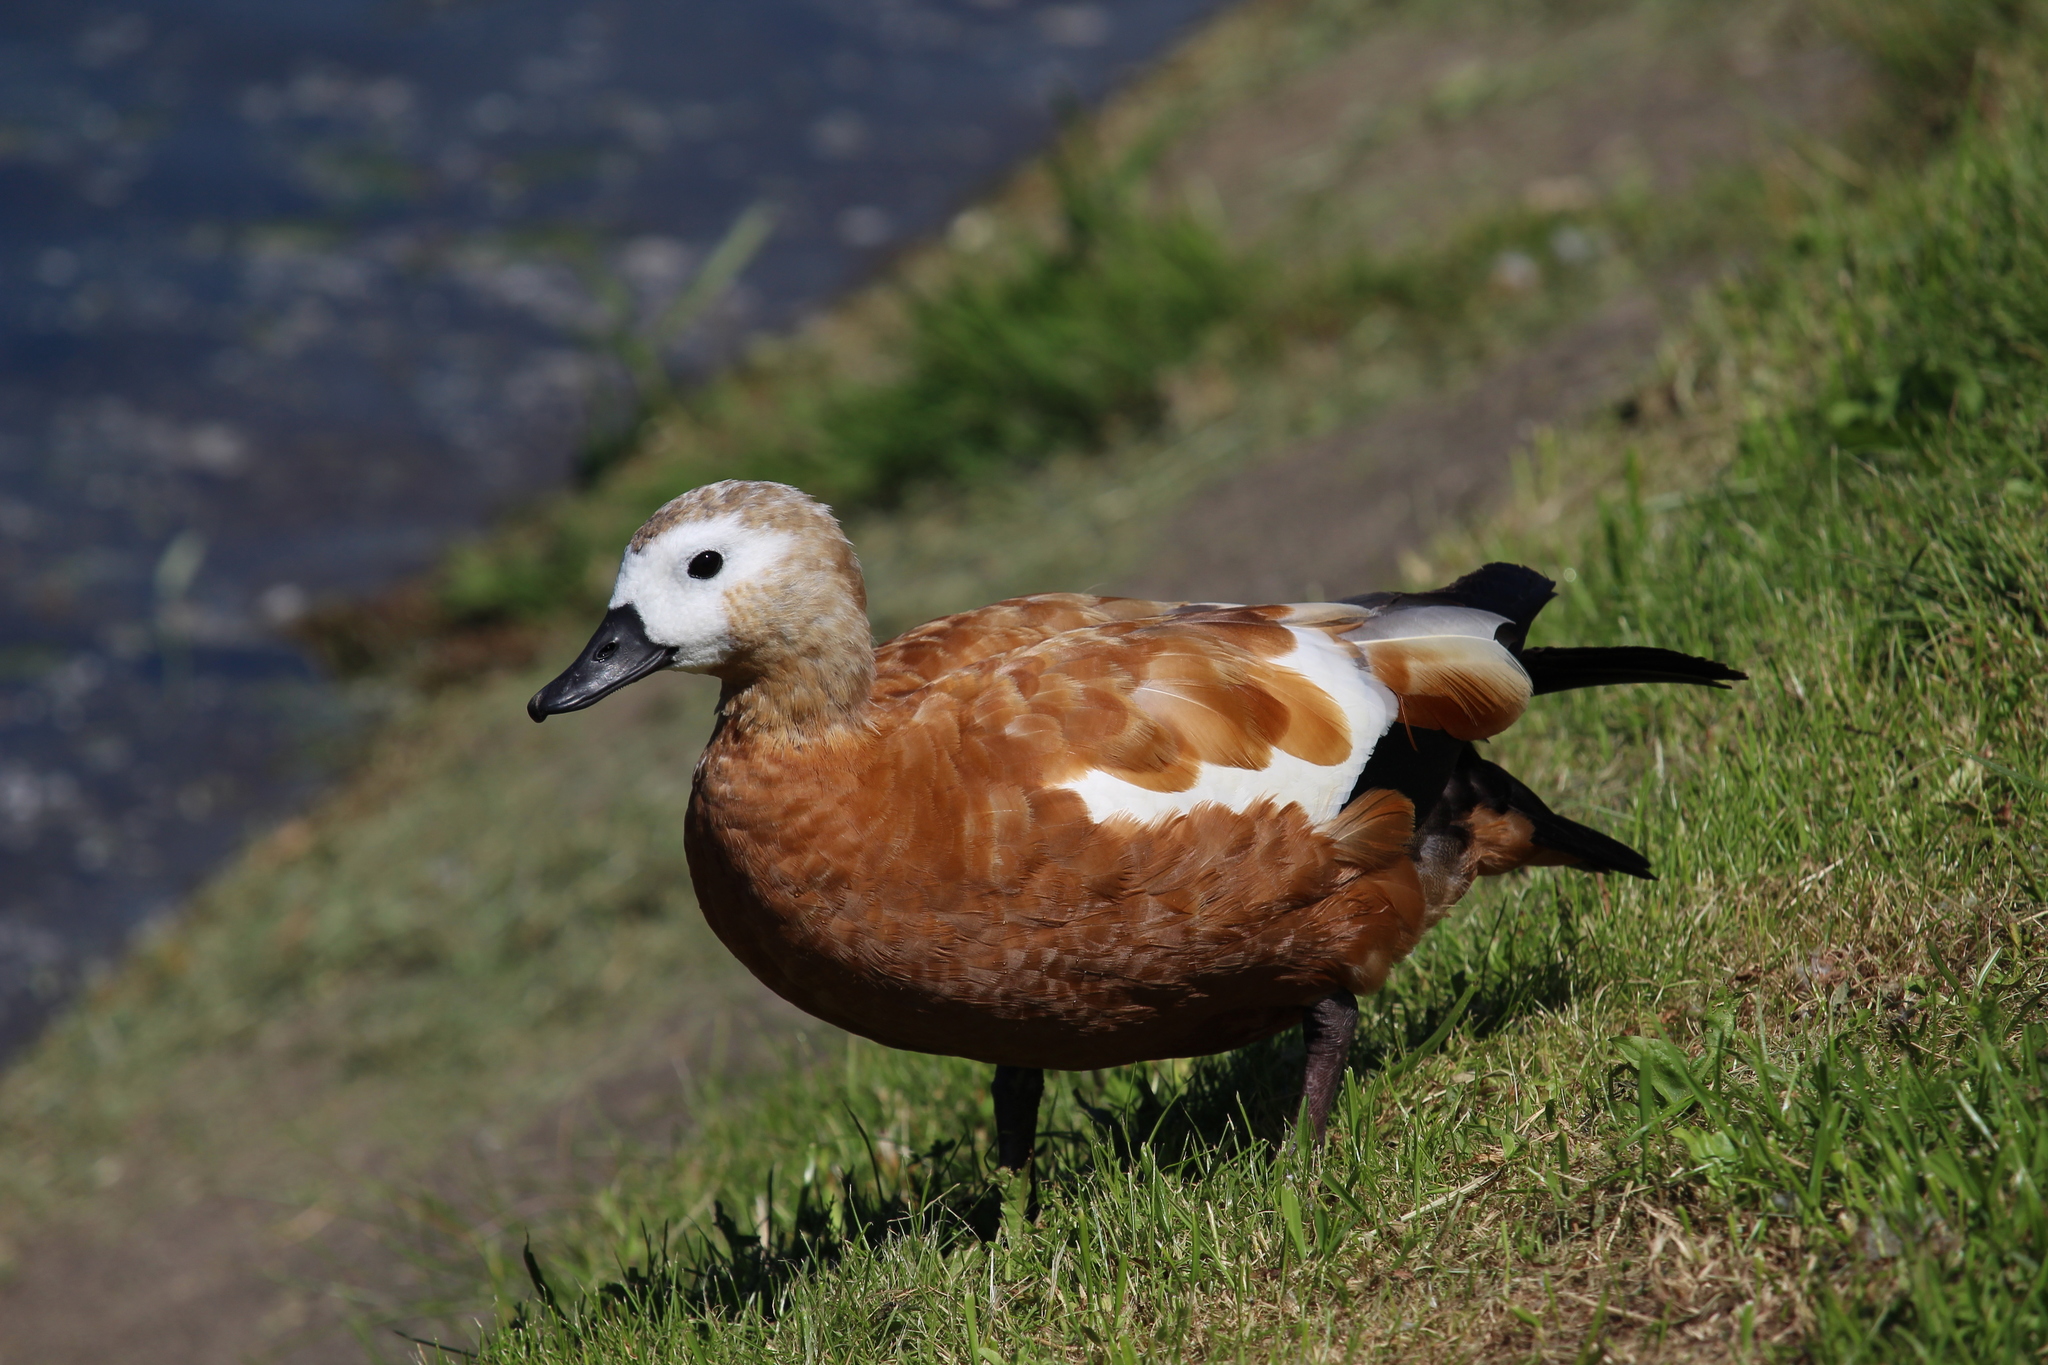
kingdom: Animalia
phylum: Chordata
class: Aves
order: Anseriformes
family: Anatidae
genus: Tadorna
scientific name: Tadorna ferruginea
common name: Ruddy shelduck
